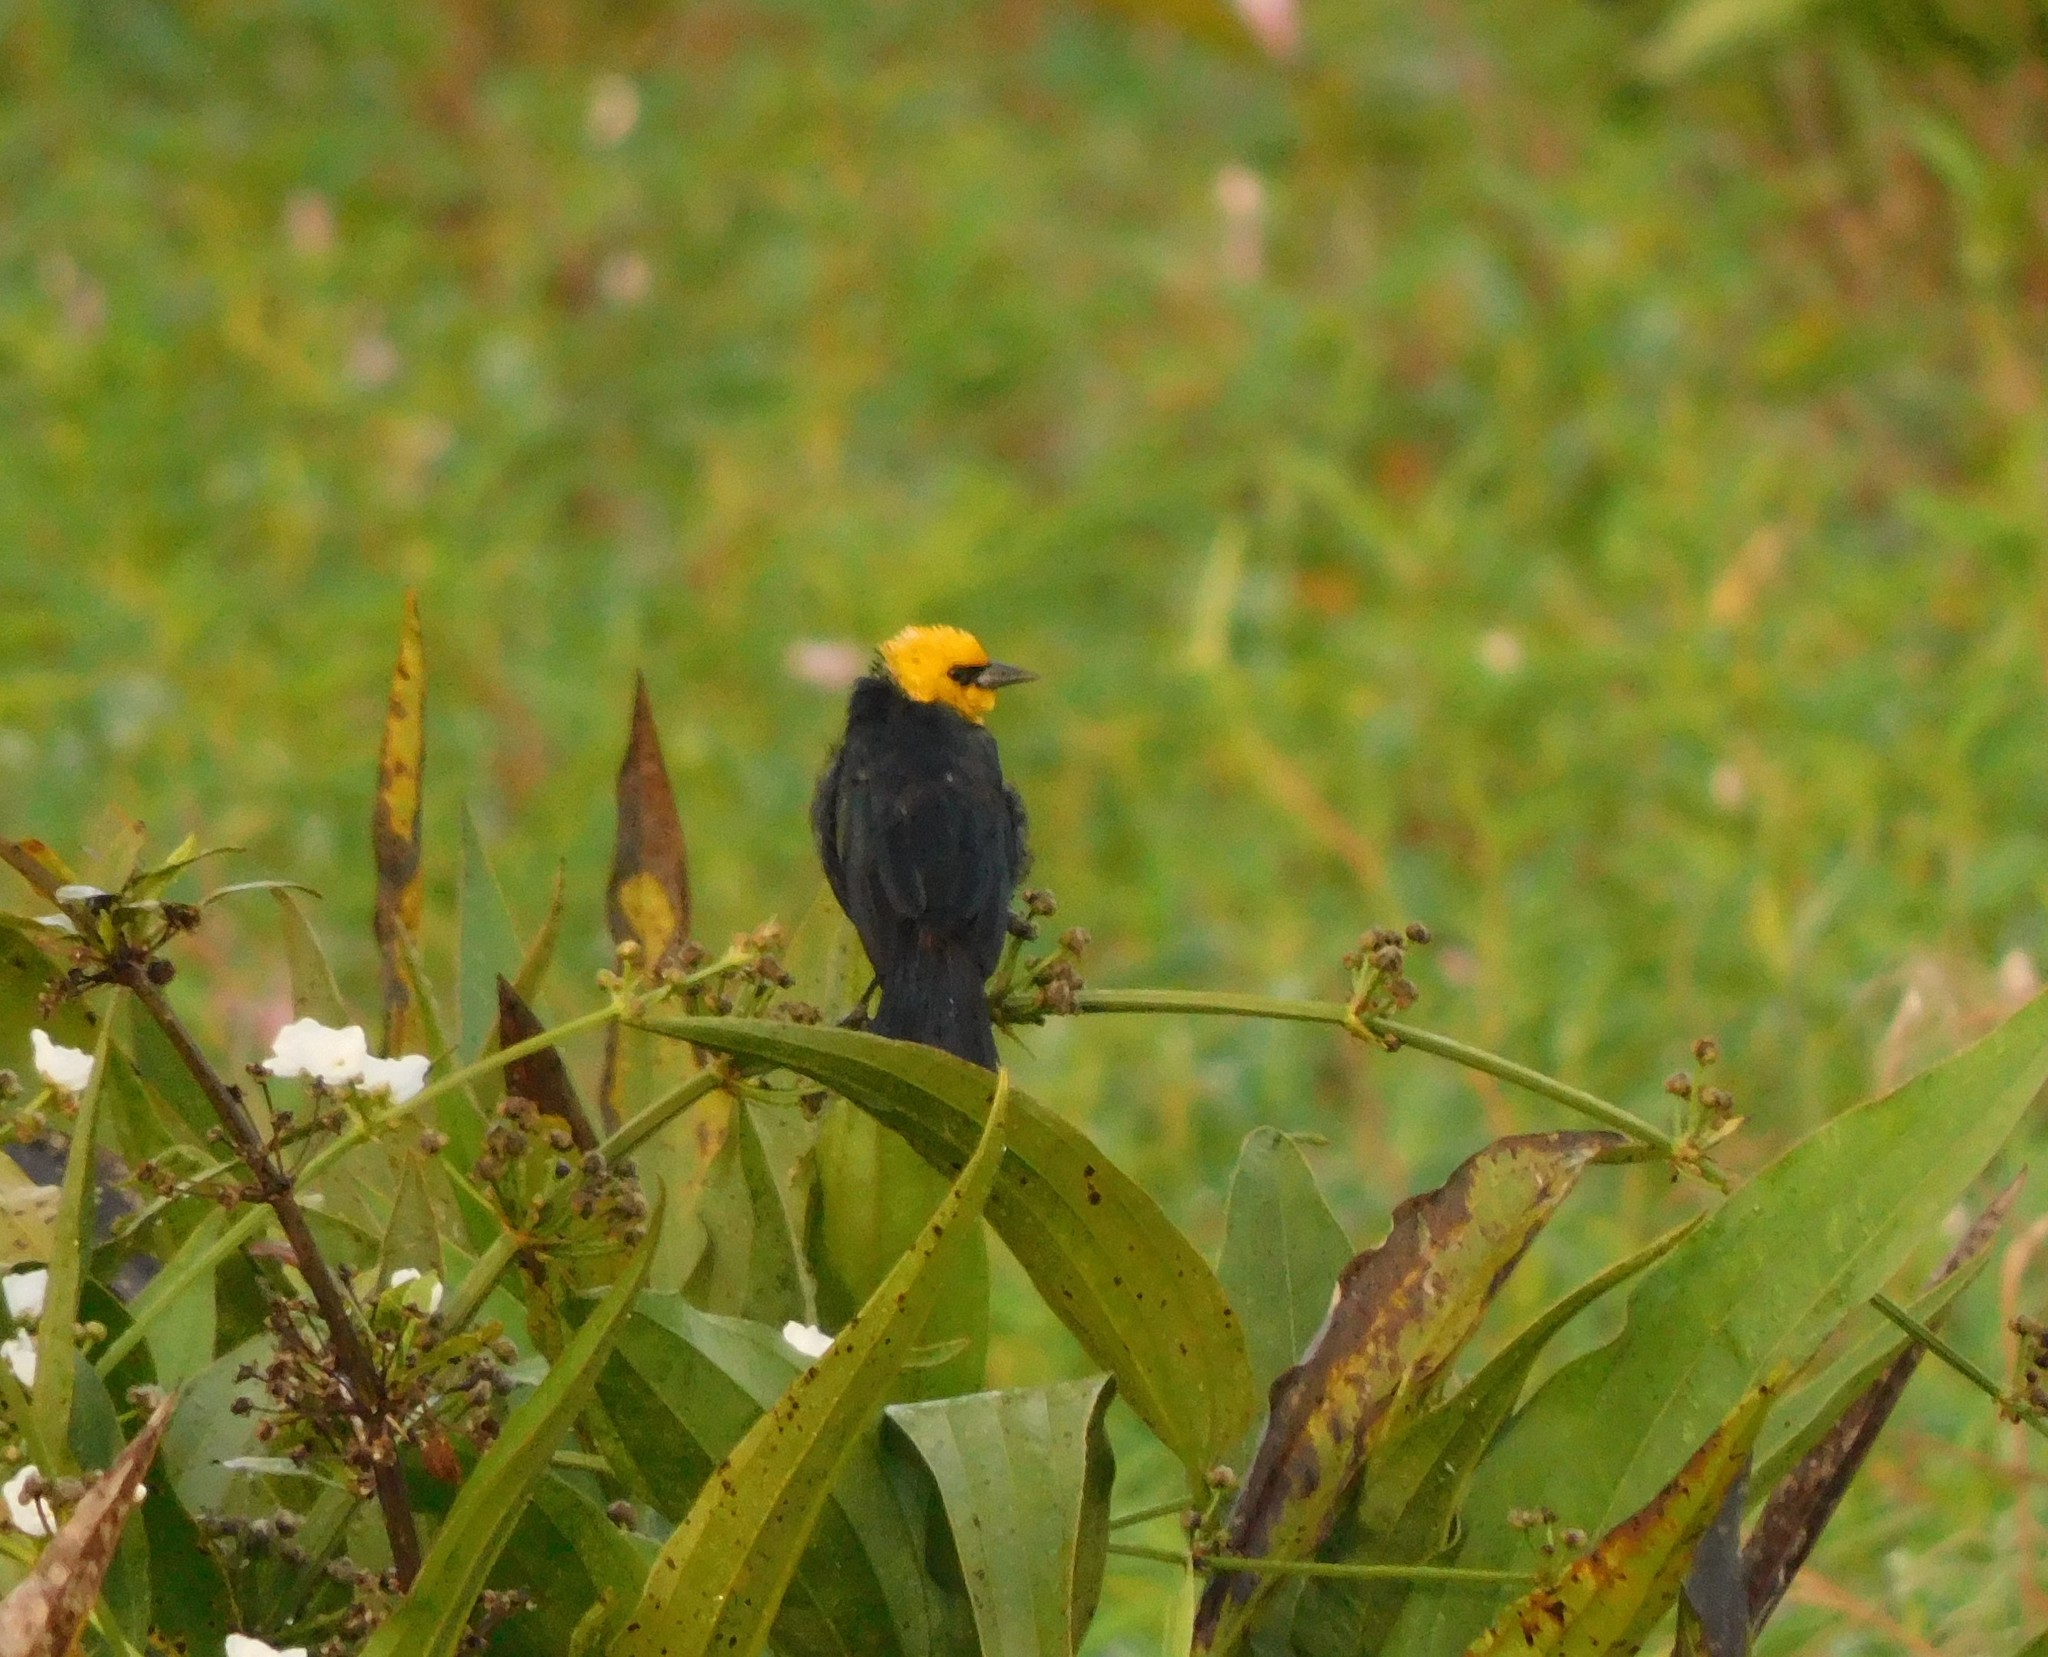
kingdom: Animalia
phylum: Chordata
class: Aves
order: Passeriformes
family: Icteridae
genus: Chrysomus
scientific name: Chrysomus icterocephalus
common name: Yellow-hooded blackbird
